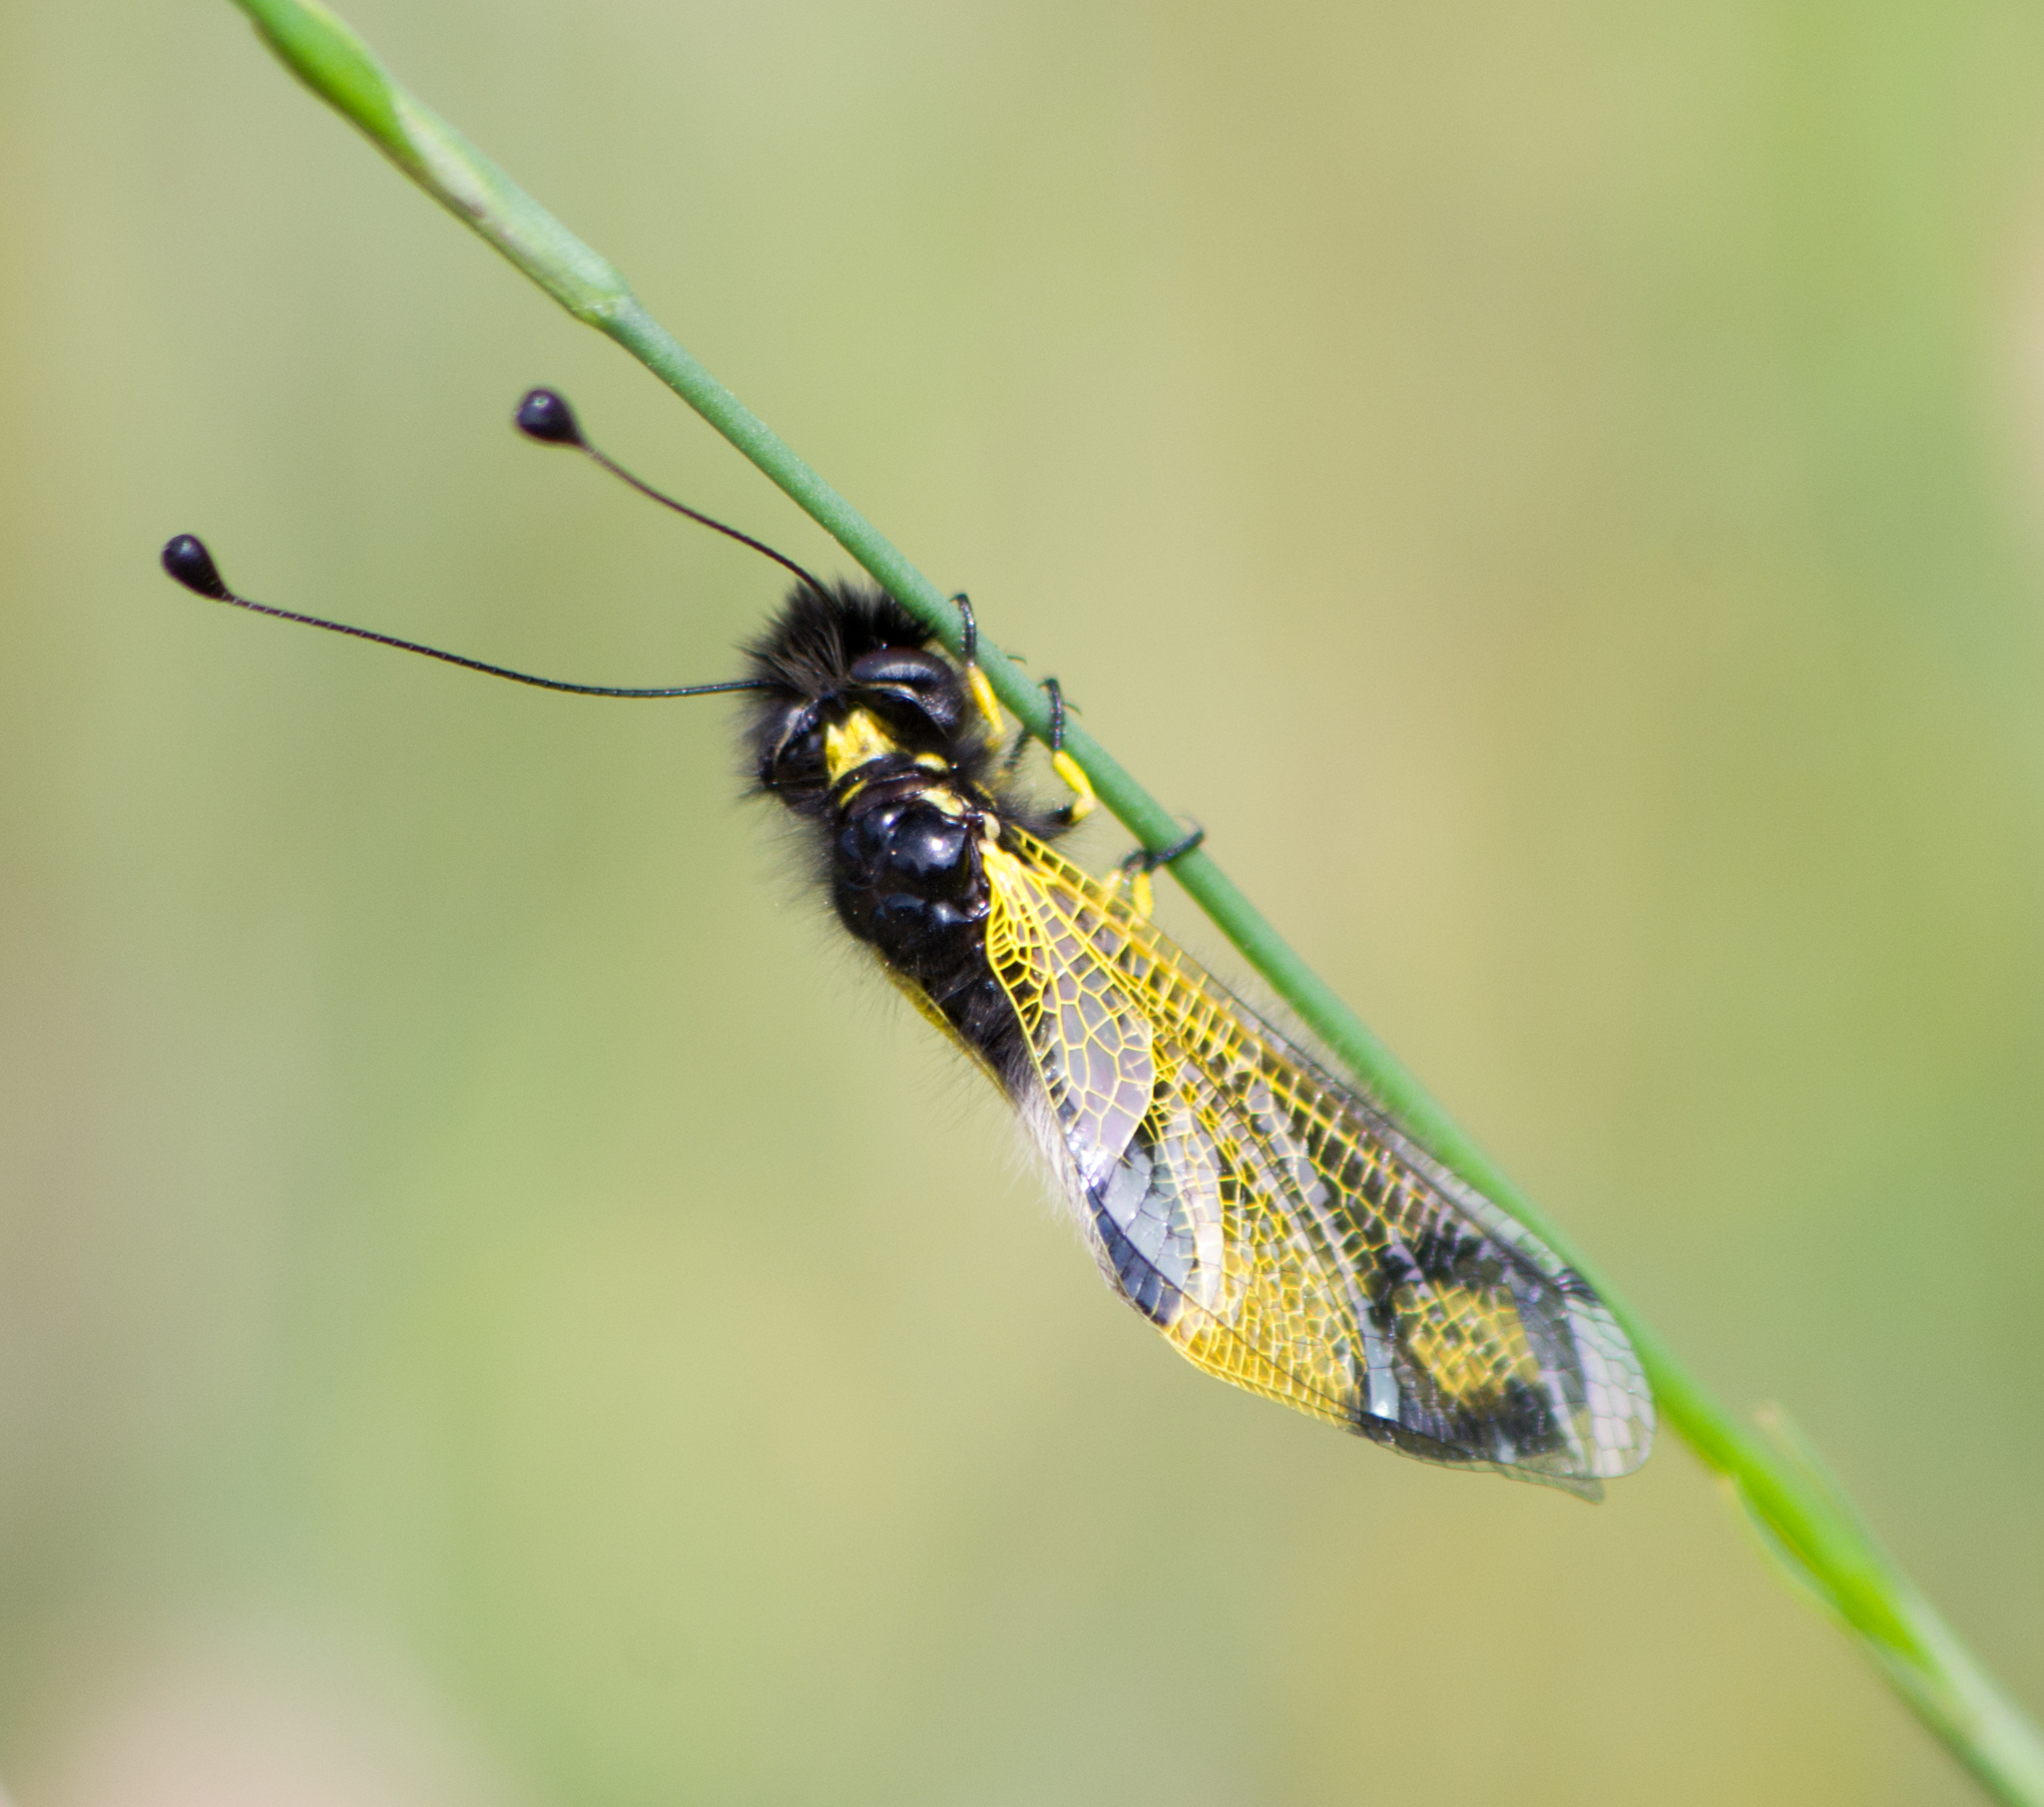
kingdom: Animalia
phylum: Arthropoda
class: Insecta
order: Neuroptera
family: Ascalaphidae
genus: Libelloides
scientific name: Libelloides rhomboideus
